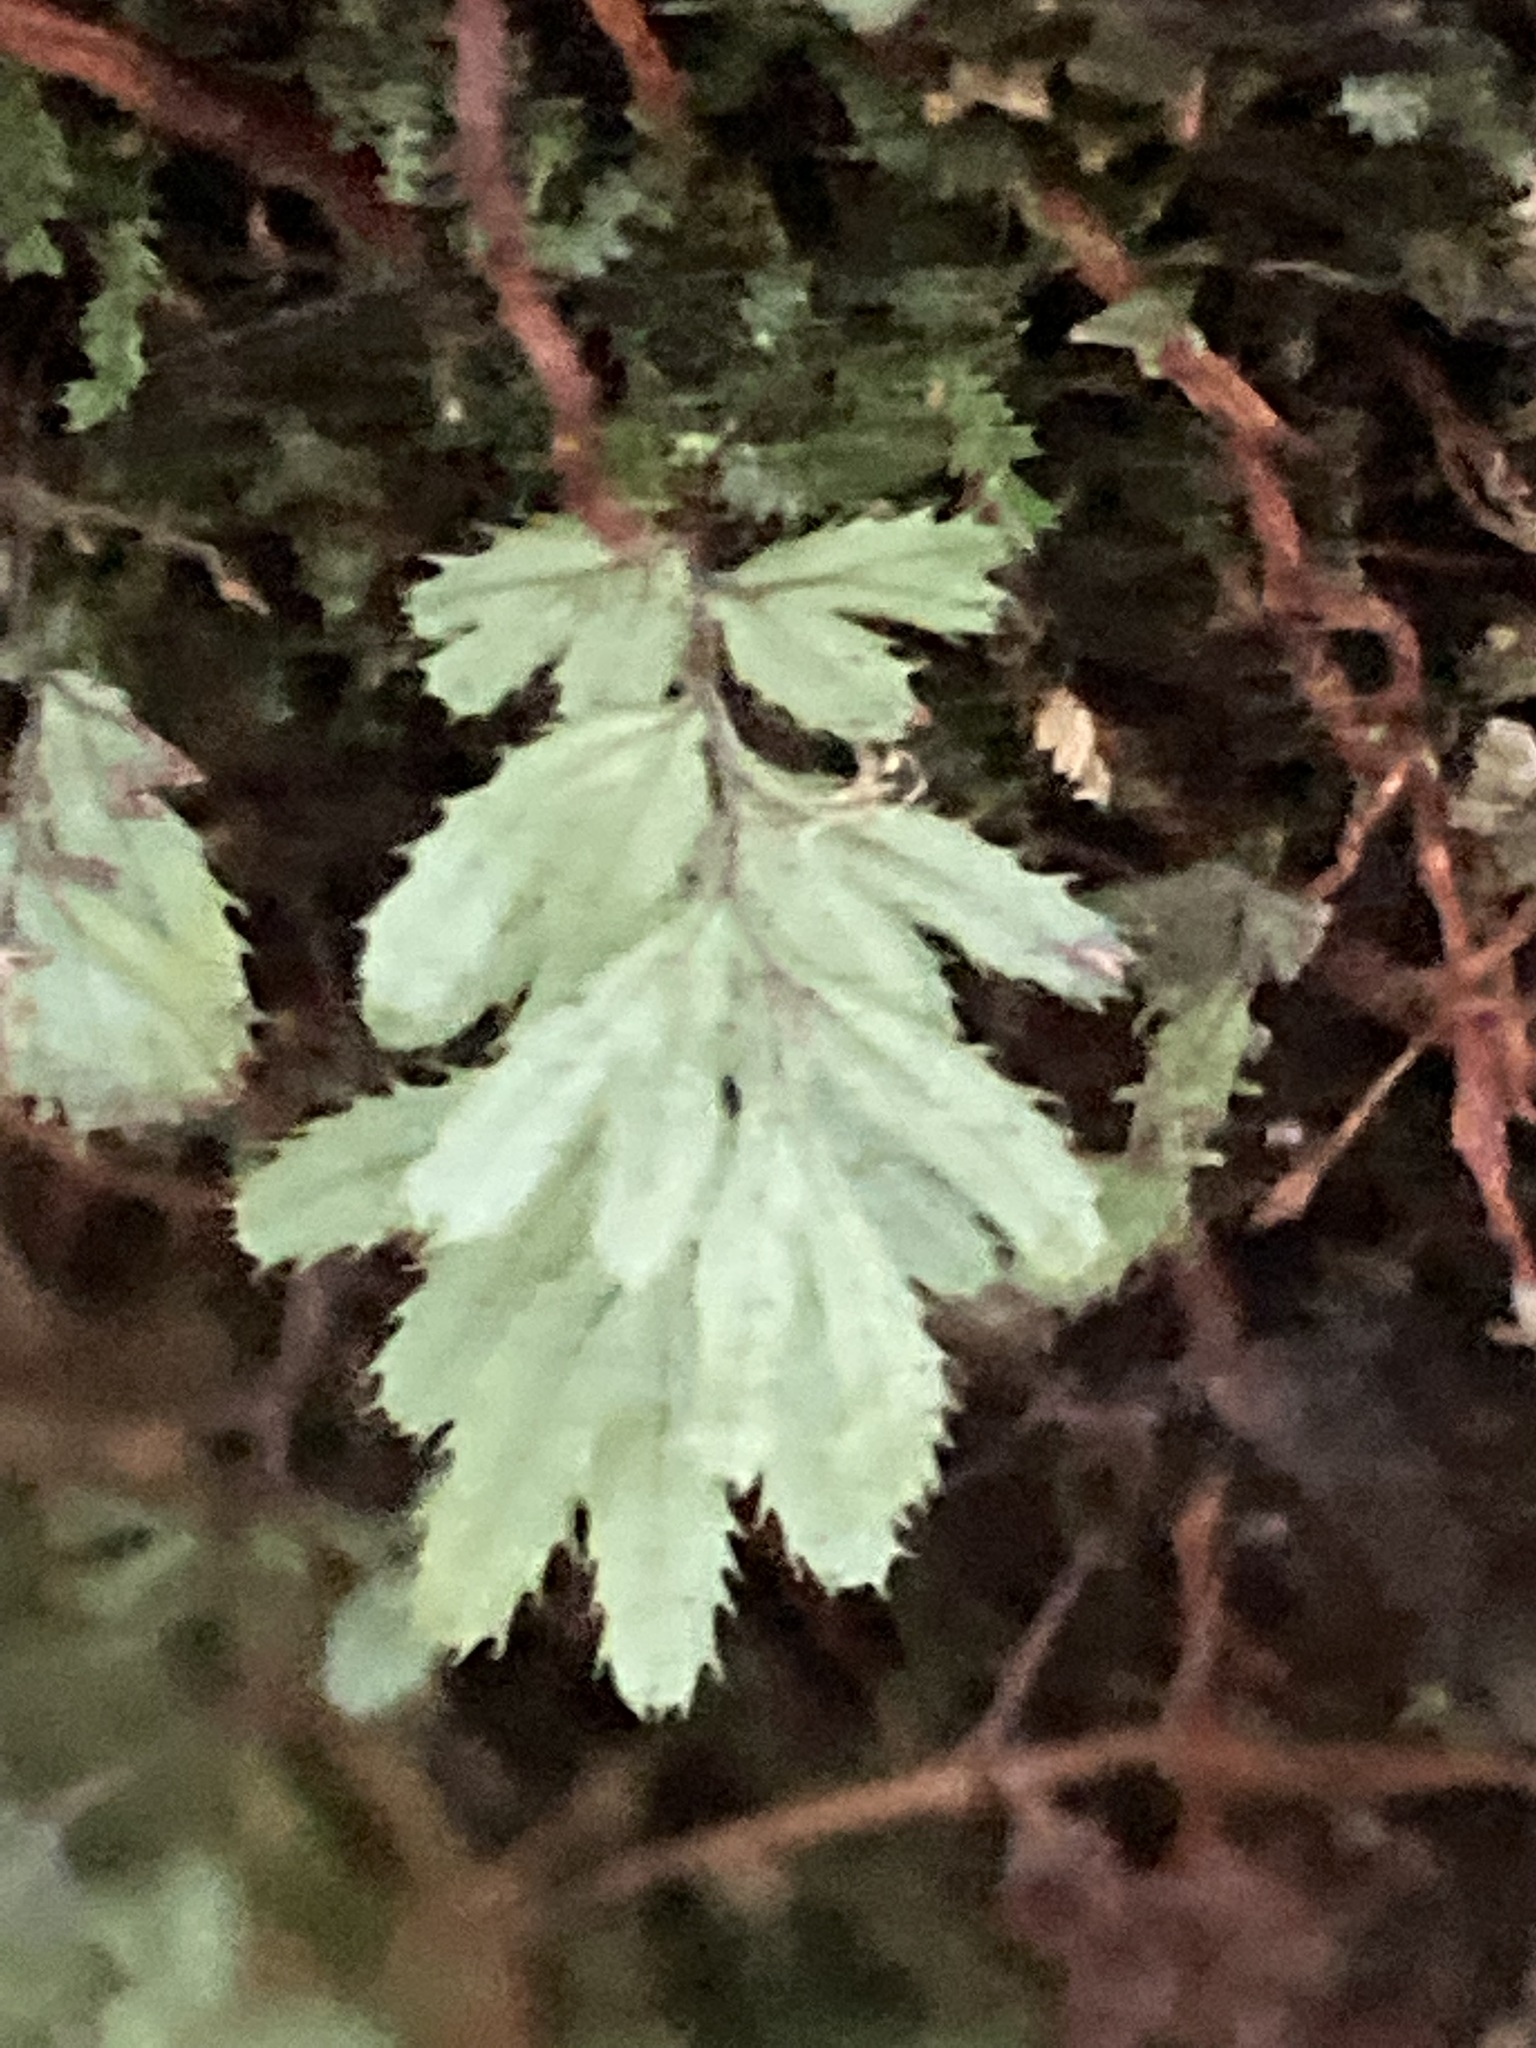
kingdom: Plantae
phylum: Tracheophyta
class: Polypodiopsida
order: Hymenophyllales
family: Hymenophyllaceae
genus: Hymenophyllum
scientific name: Hymenophyllum revolutum
